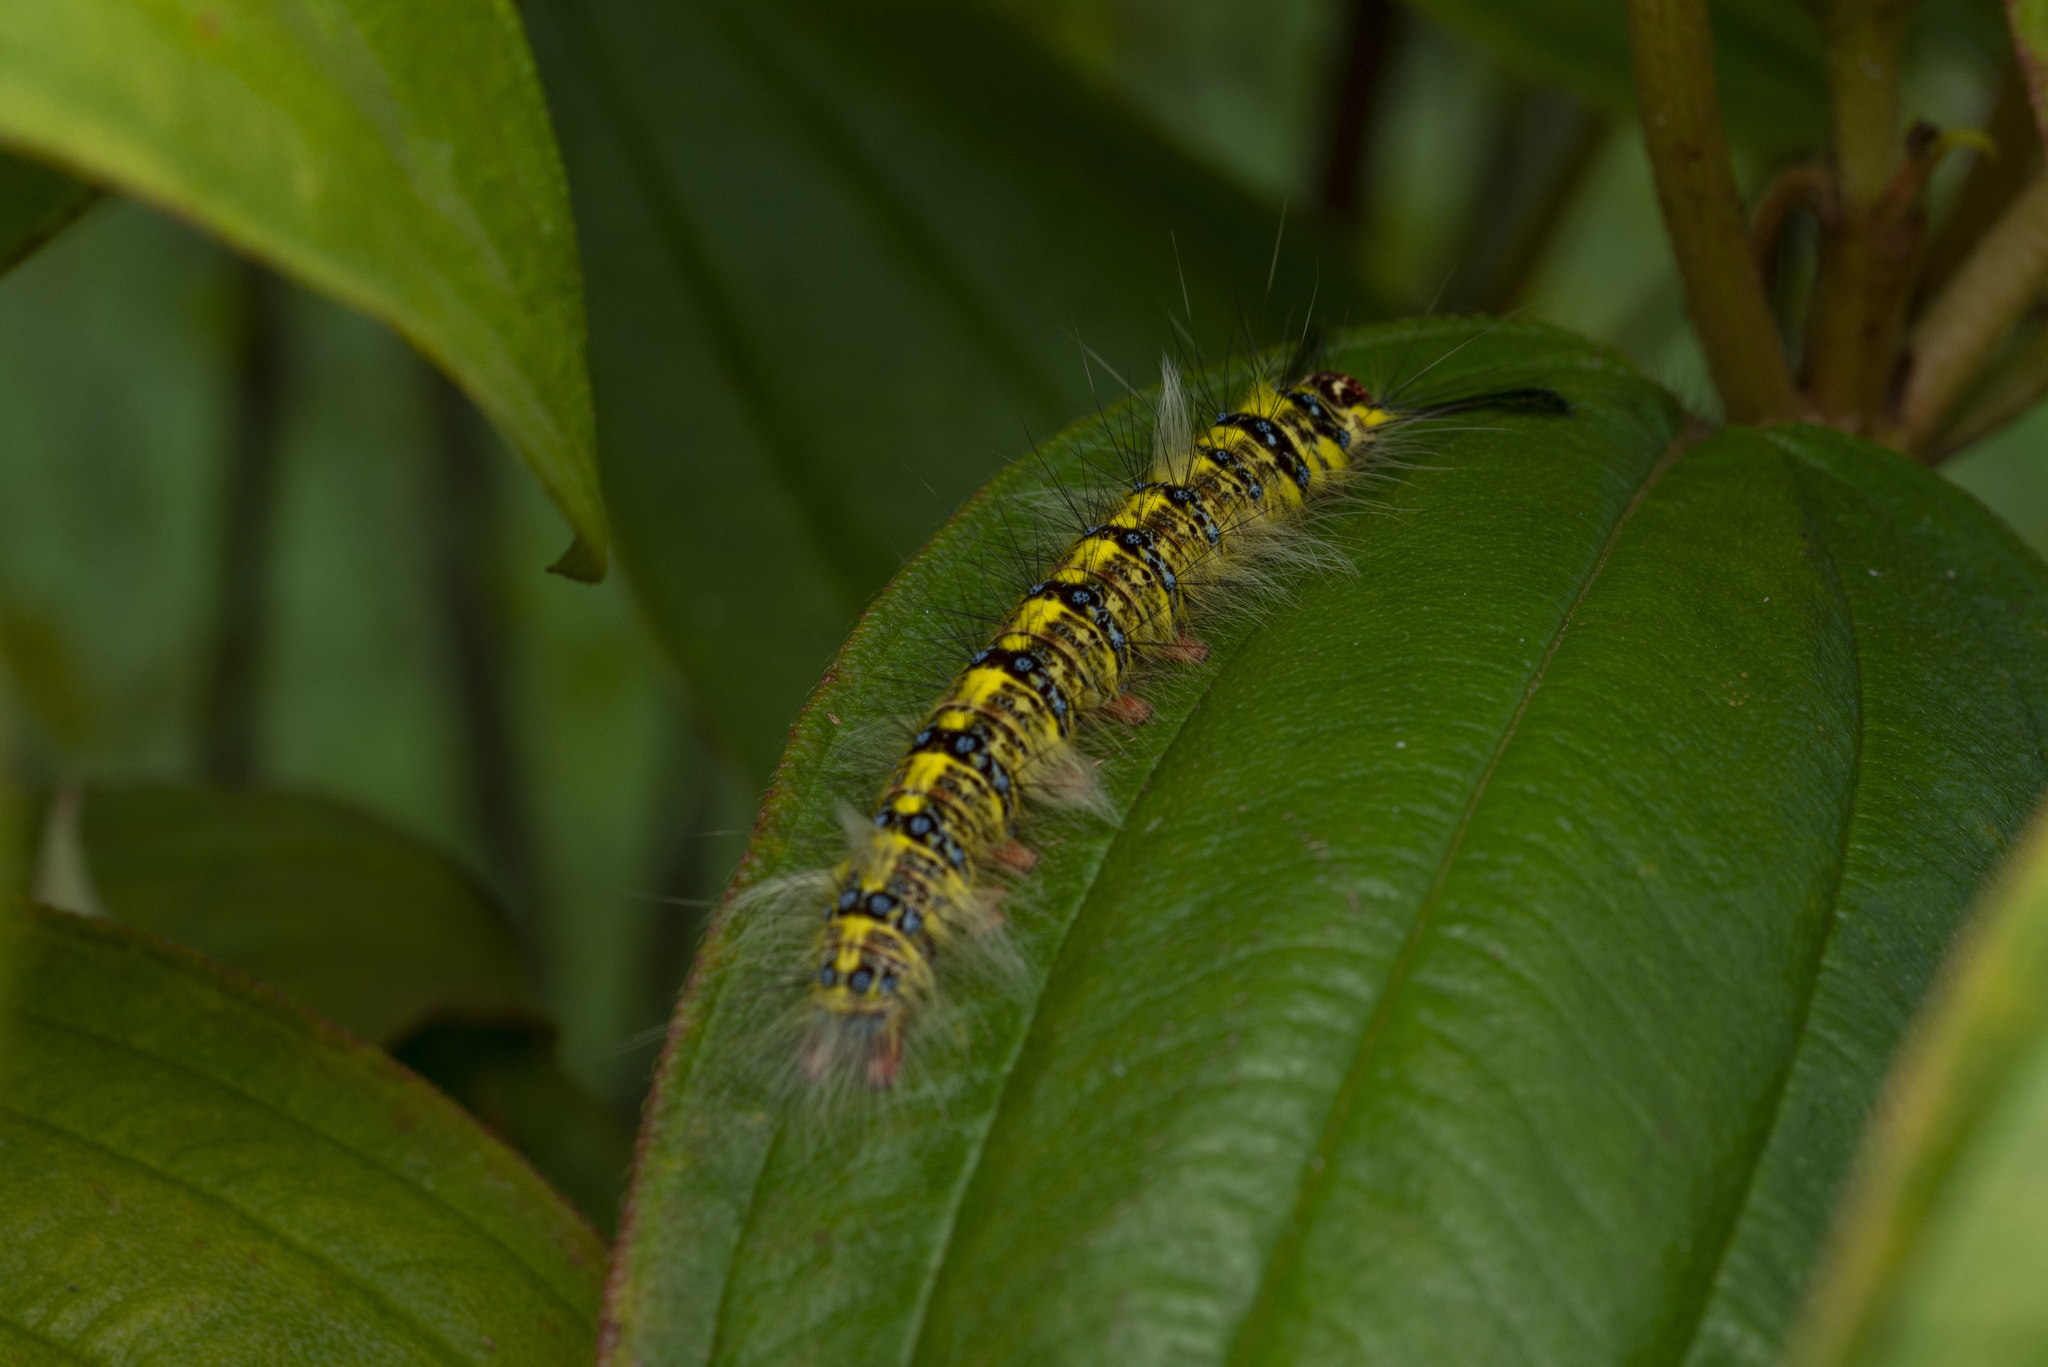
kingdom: Animalia
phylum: Arthropoda
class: Insecta
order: Lepidoptera
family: Lasiocampidae
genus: Trabala
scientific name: Trabala pallida
